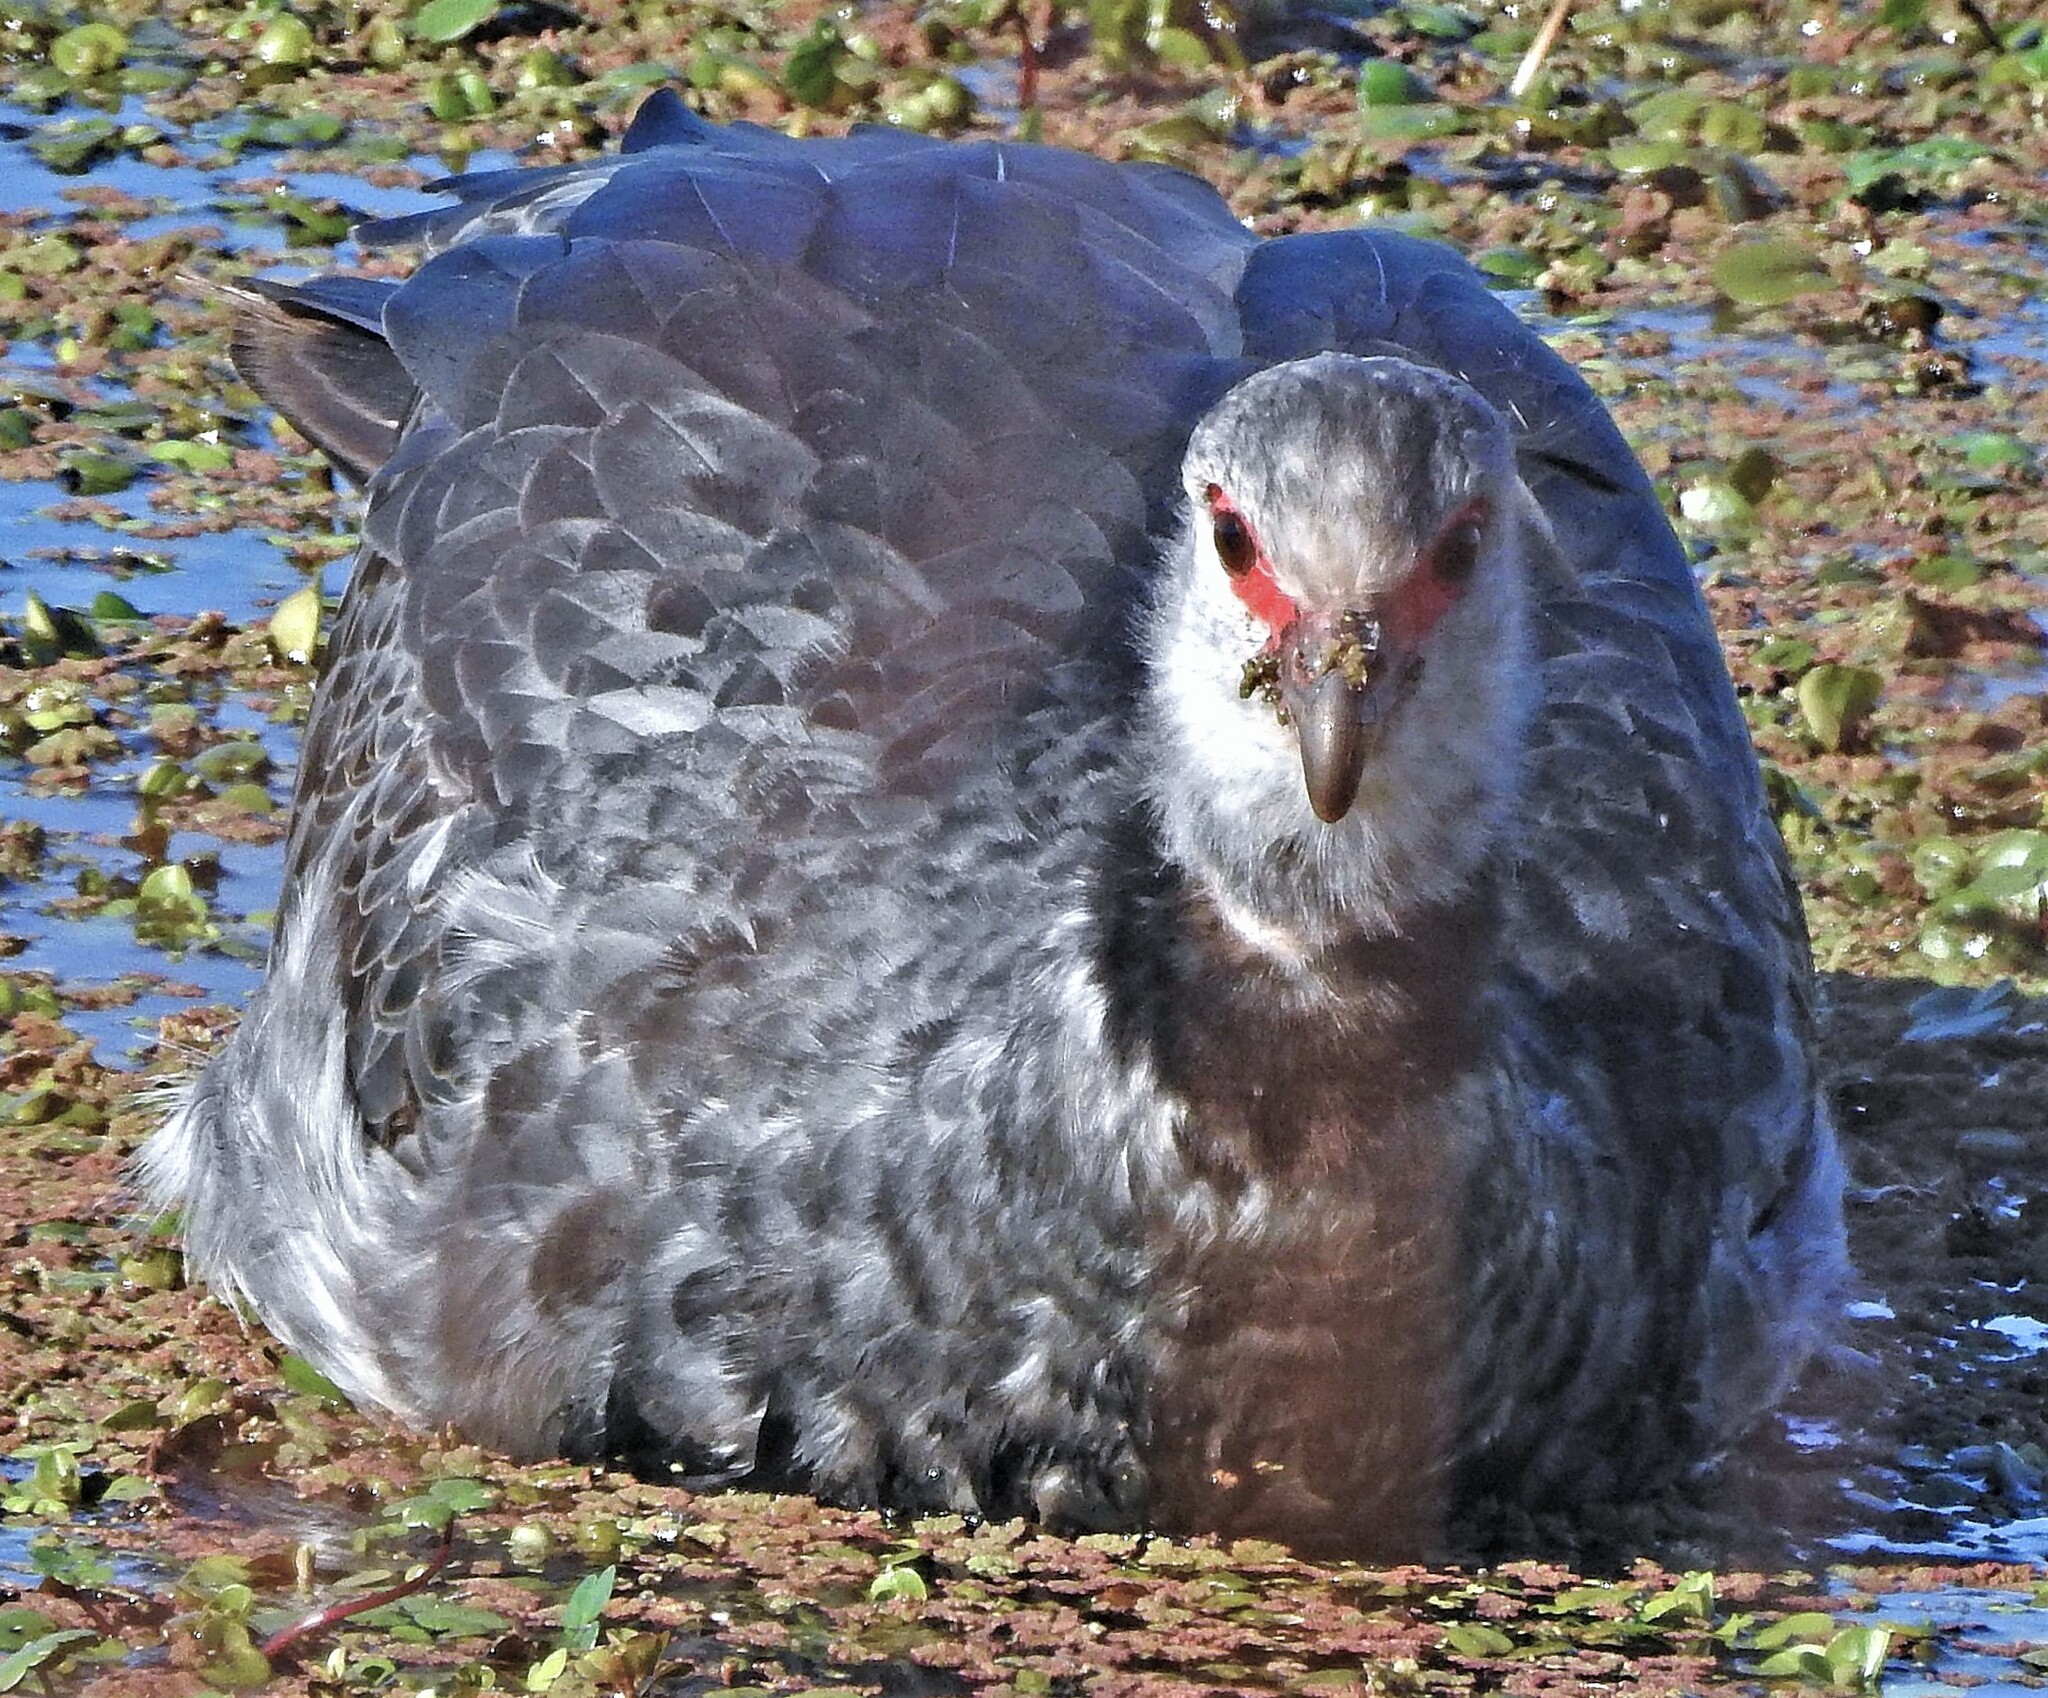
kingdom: Animalia
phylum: Chordata
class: Aves
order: Anseriformes
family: Anhimidae
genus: Chauna
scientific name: Chauna torquata
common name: Southern screamer
